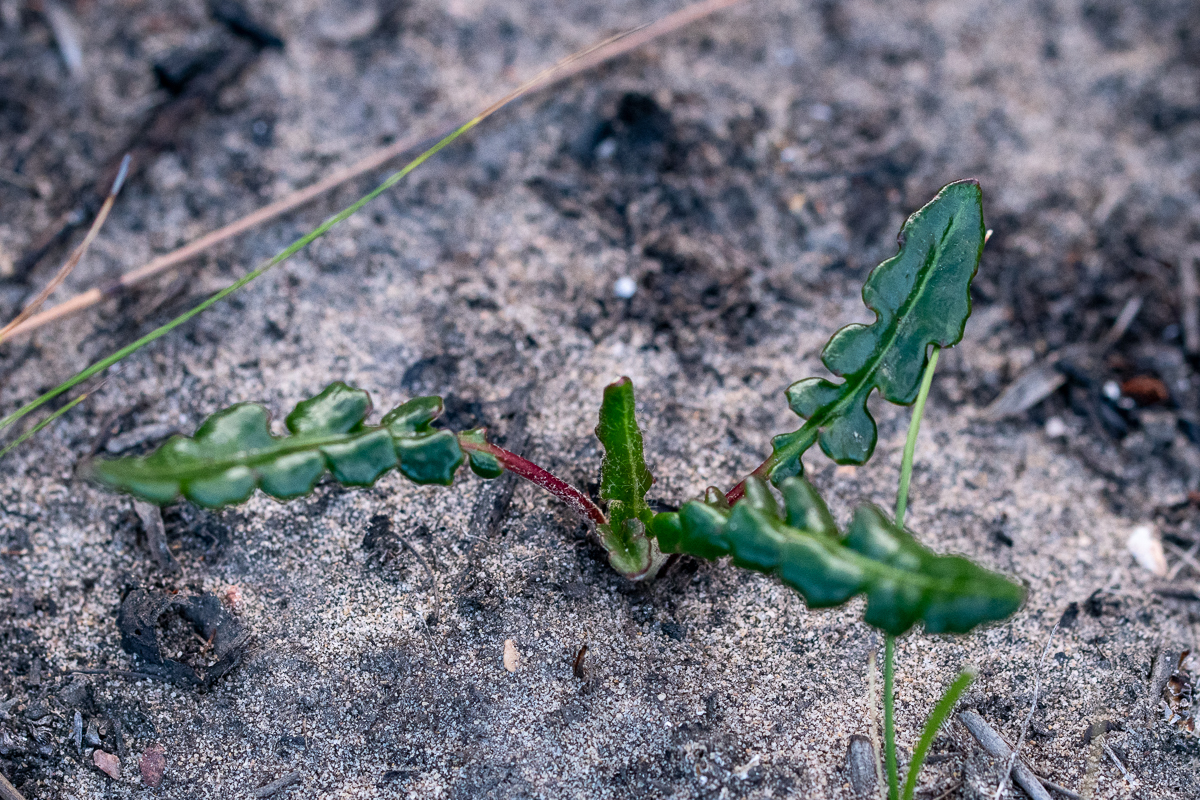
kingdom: Plantae
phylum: Tracheophyta
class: Magnoliopsida
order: Asterales
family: Asteraceae
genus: Gerbera
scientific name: Gerbera linnaei
